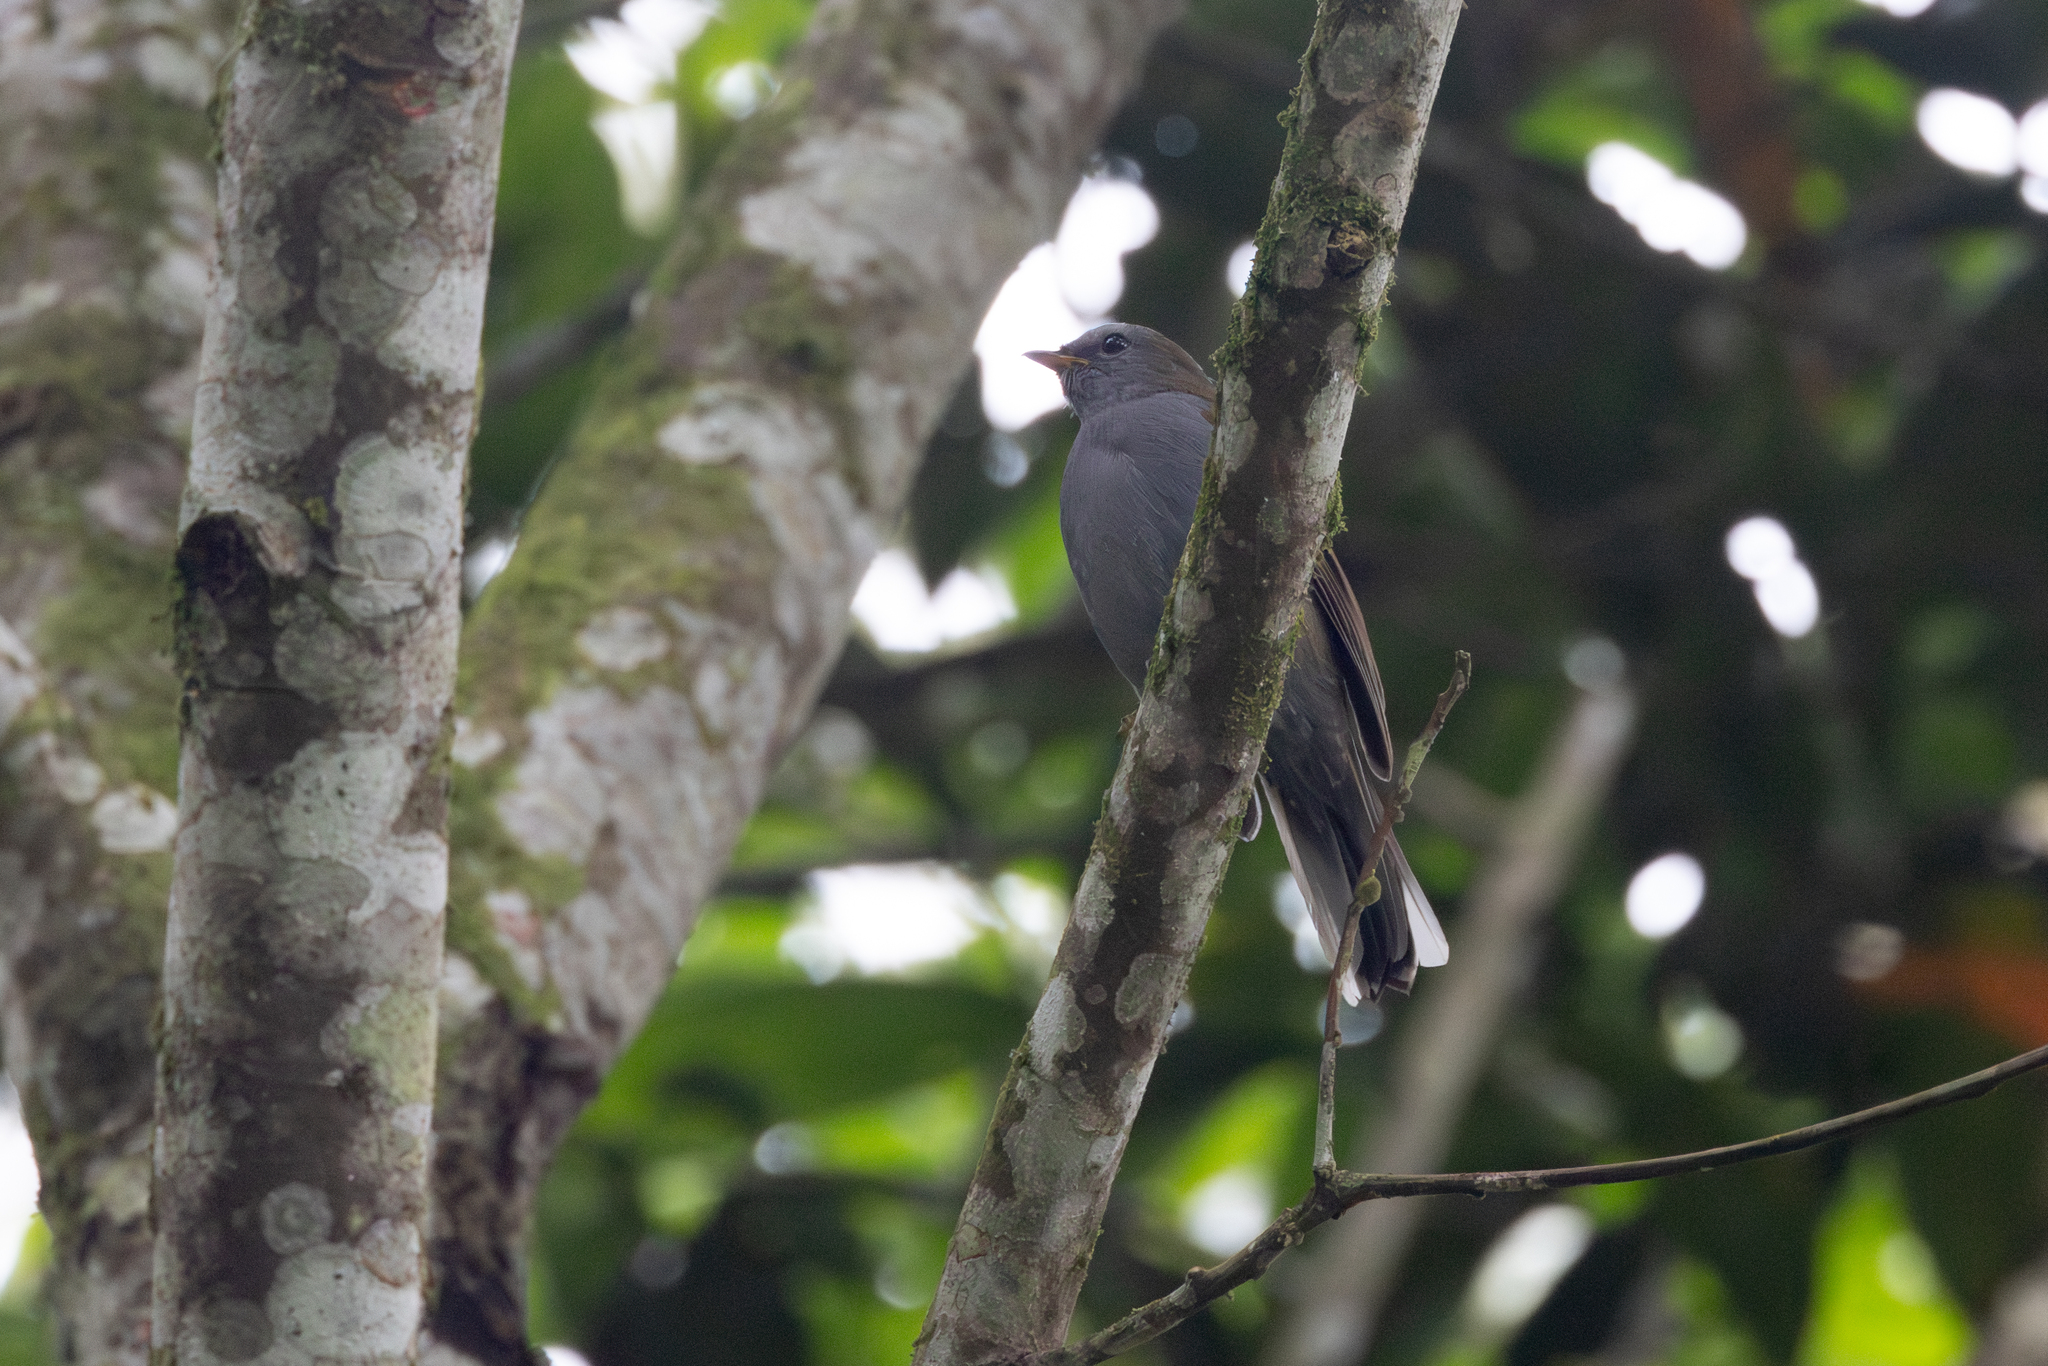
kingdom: Animalia
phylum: Chordata
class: Aves
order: Passeriformes
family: Turdidae
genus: Myadestes
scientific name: Myadestes ralloides
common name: Andean solitaire
